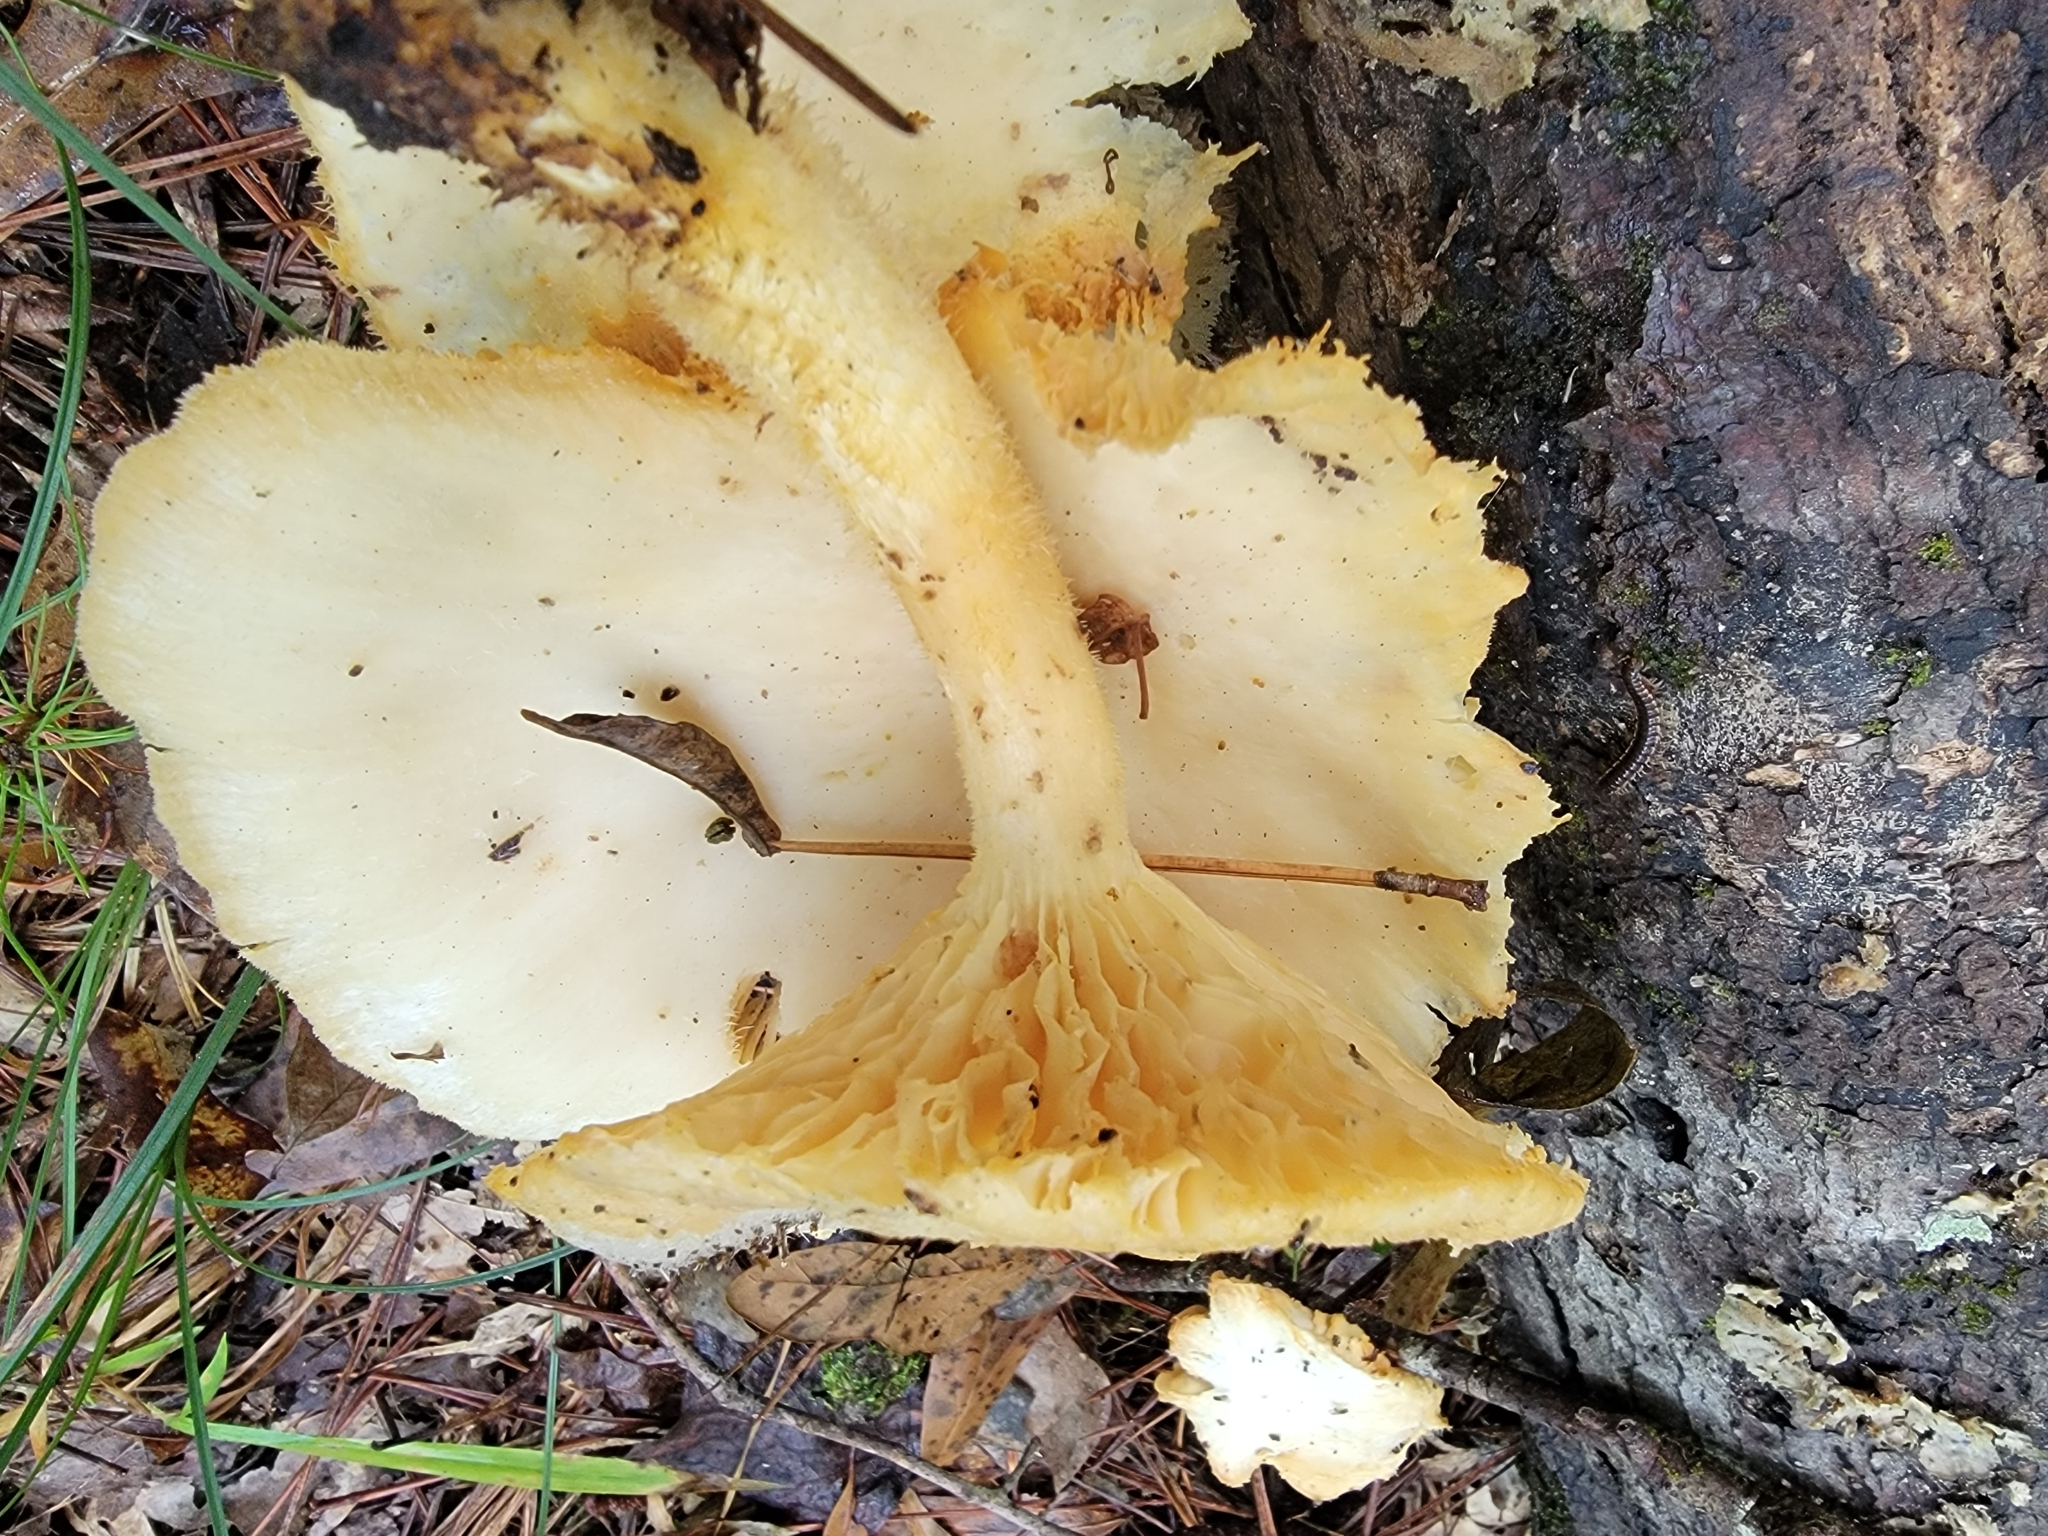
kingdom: Fungi
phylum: Basidiomycota
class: Agaricomycetes
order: Polyporales
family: Polyporaceae
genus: Lentinus
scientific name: Lentinus levis
